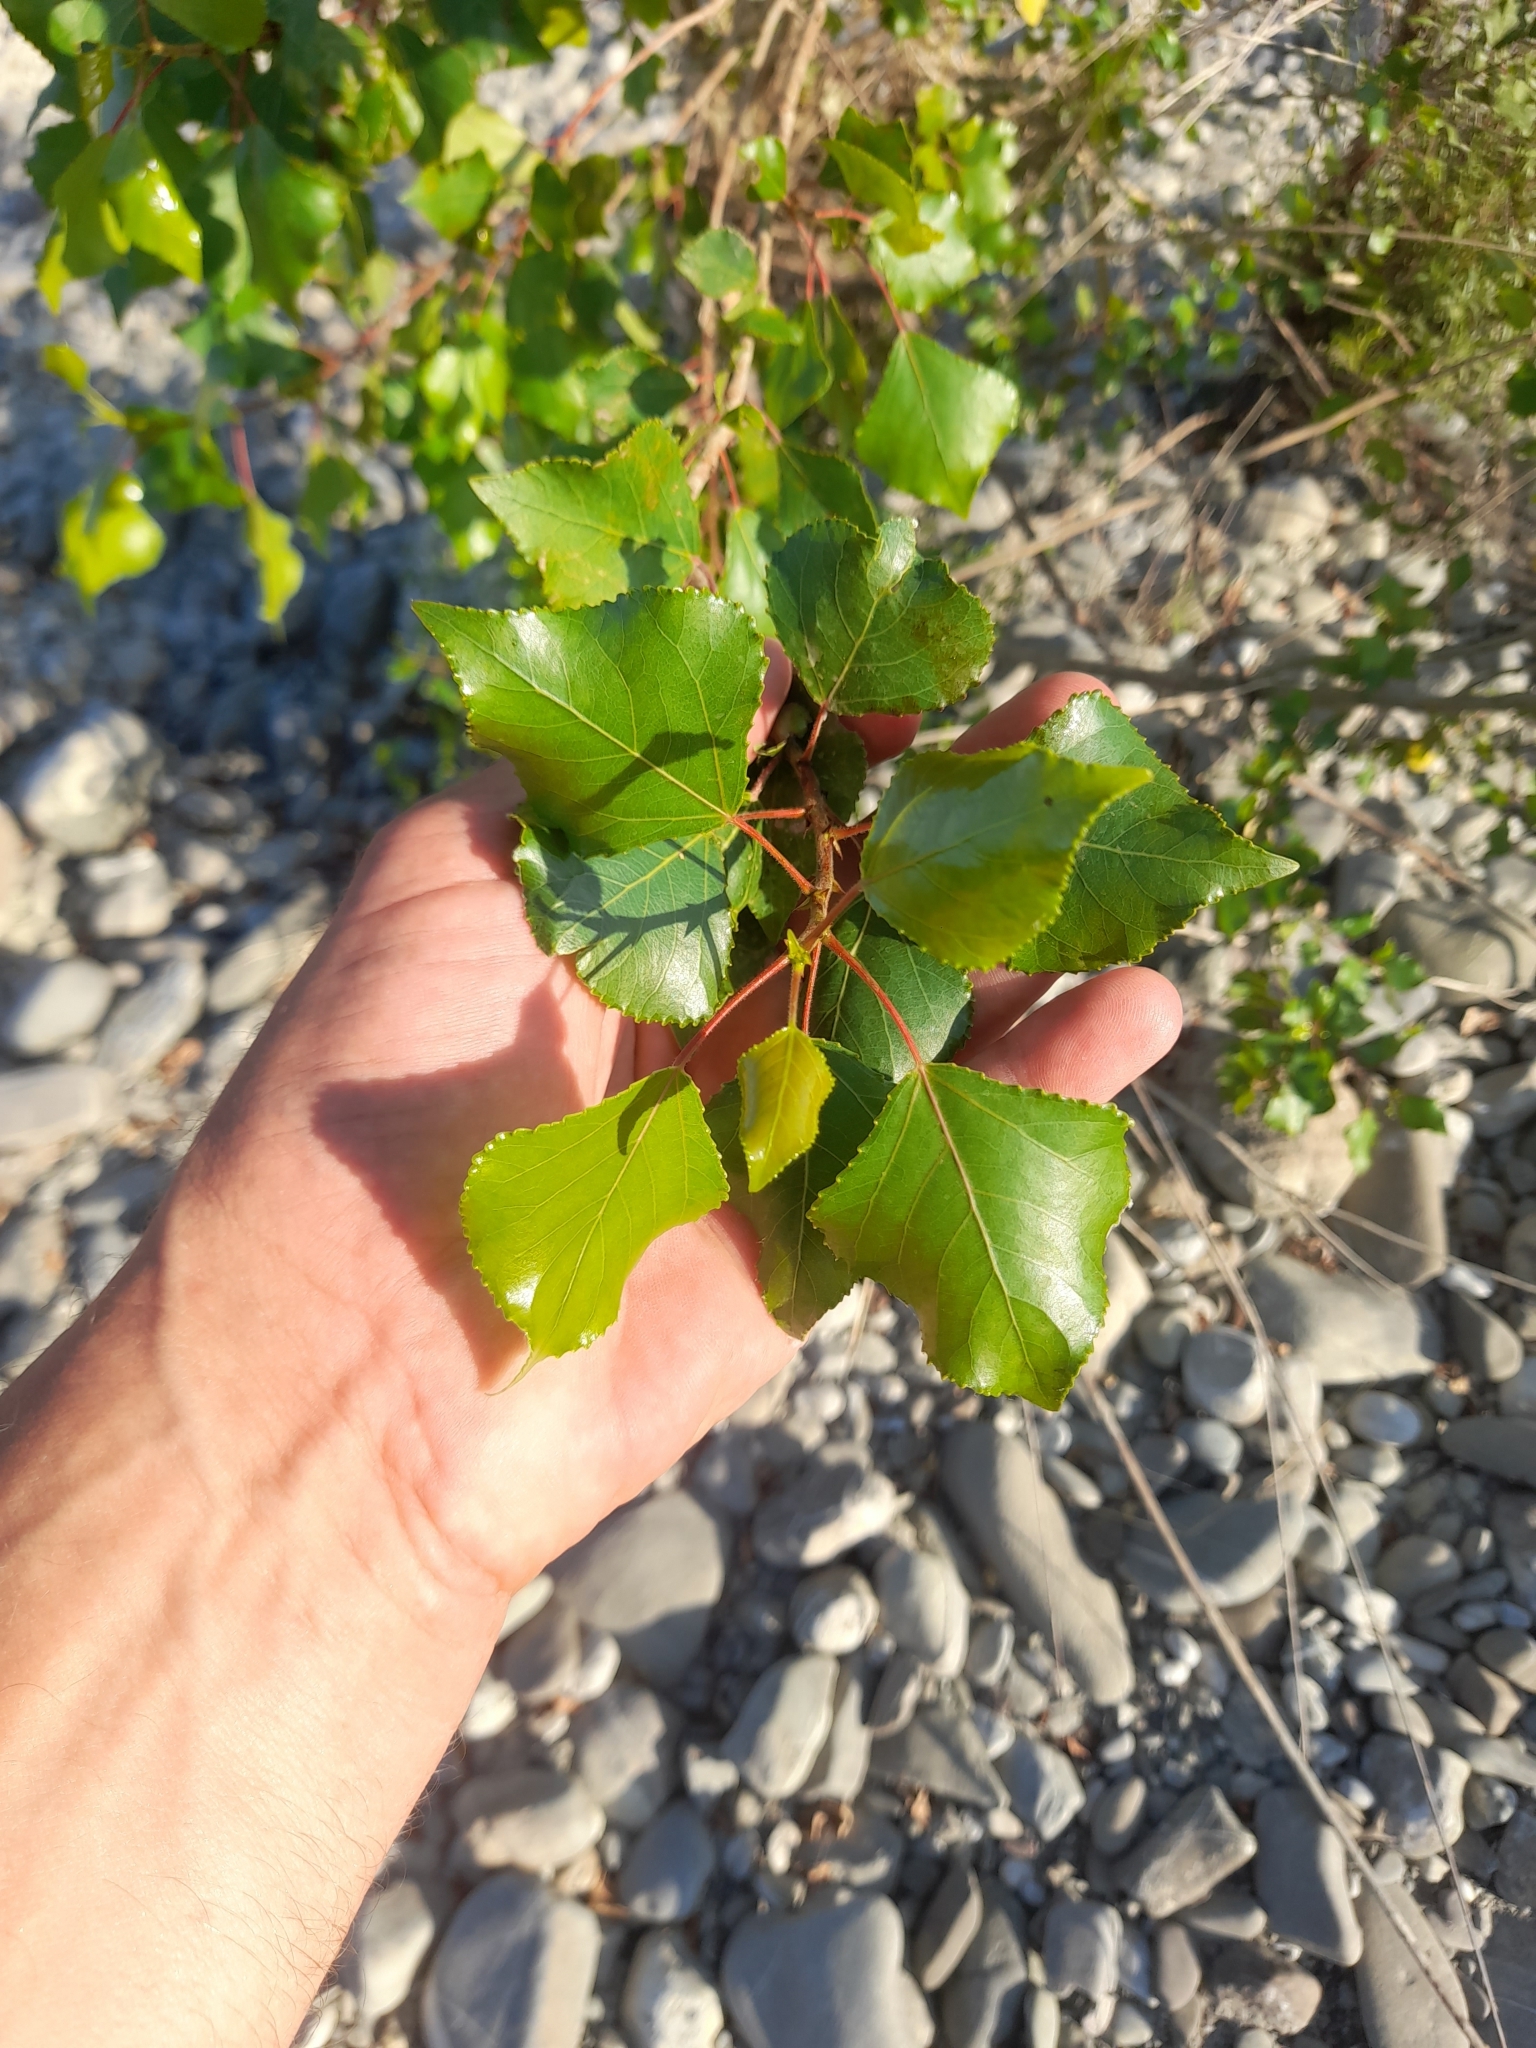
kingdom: Plantae
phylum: Tracheophyta
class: Magnoliopsida
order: Malpighiales
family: Salicaceae
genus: Populus
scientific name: Populus nigra
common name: Black poplar
